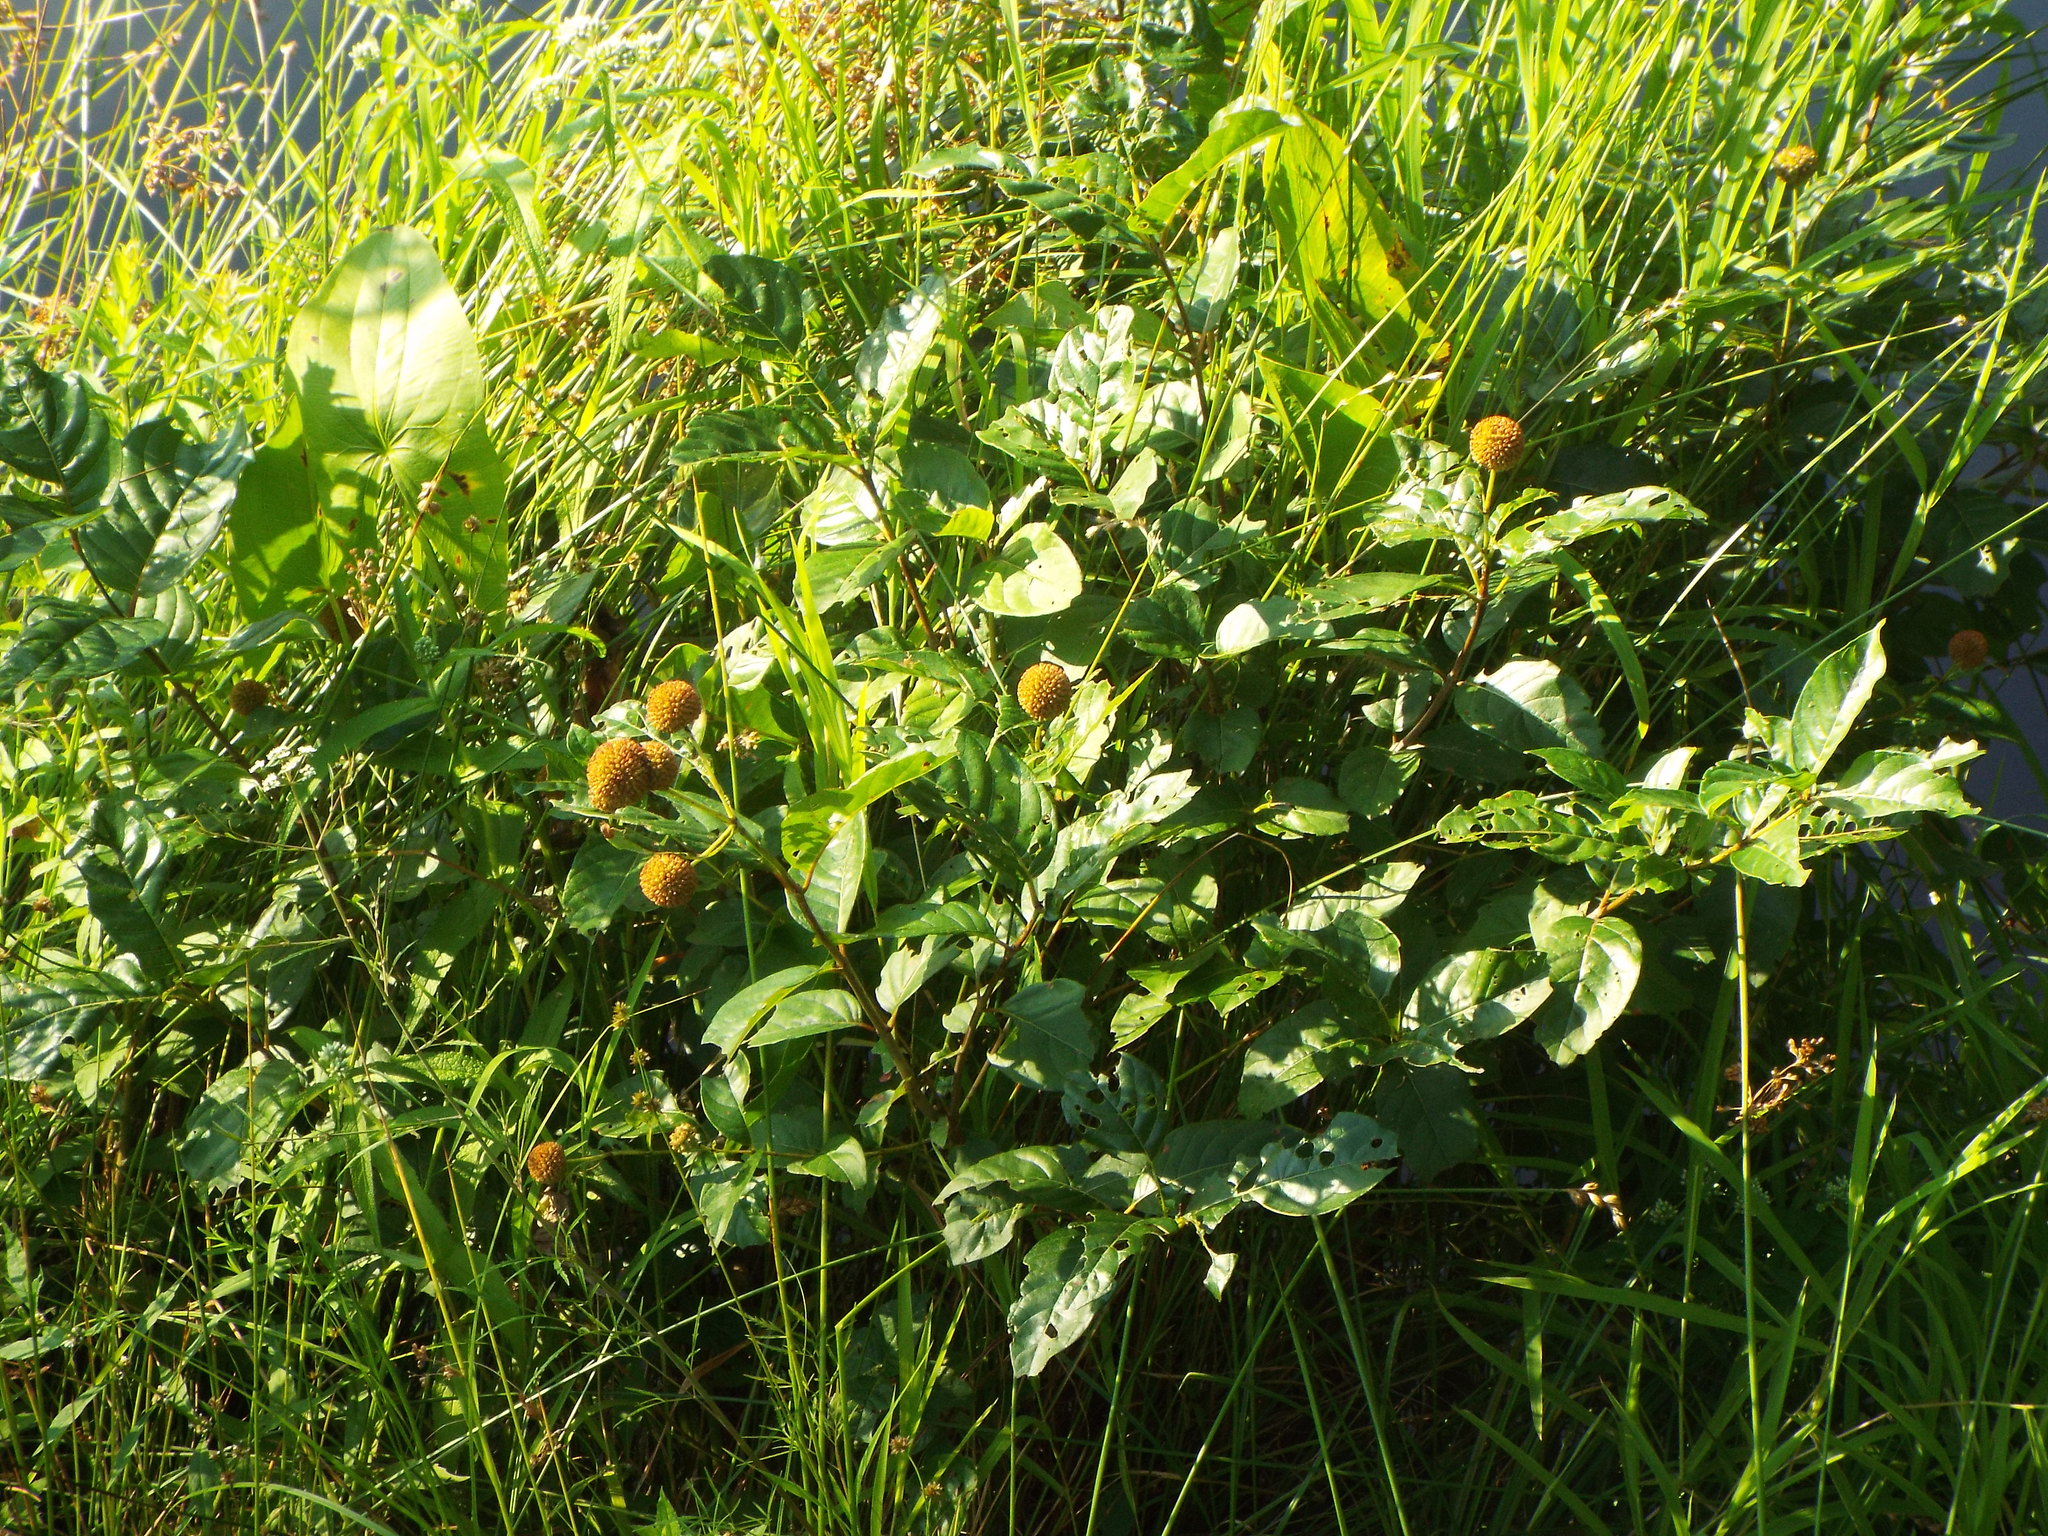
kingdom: Plantae
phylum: Tracheophyta
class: Magnoliopsida
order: Gentianales
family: Rubiaceae
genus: Cephalanthus
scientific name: Cephalanthus occidentalis
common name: Button-willow
